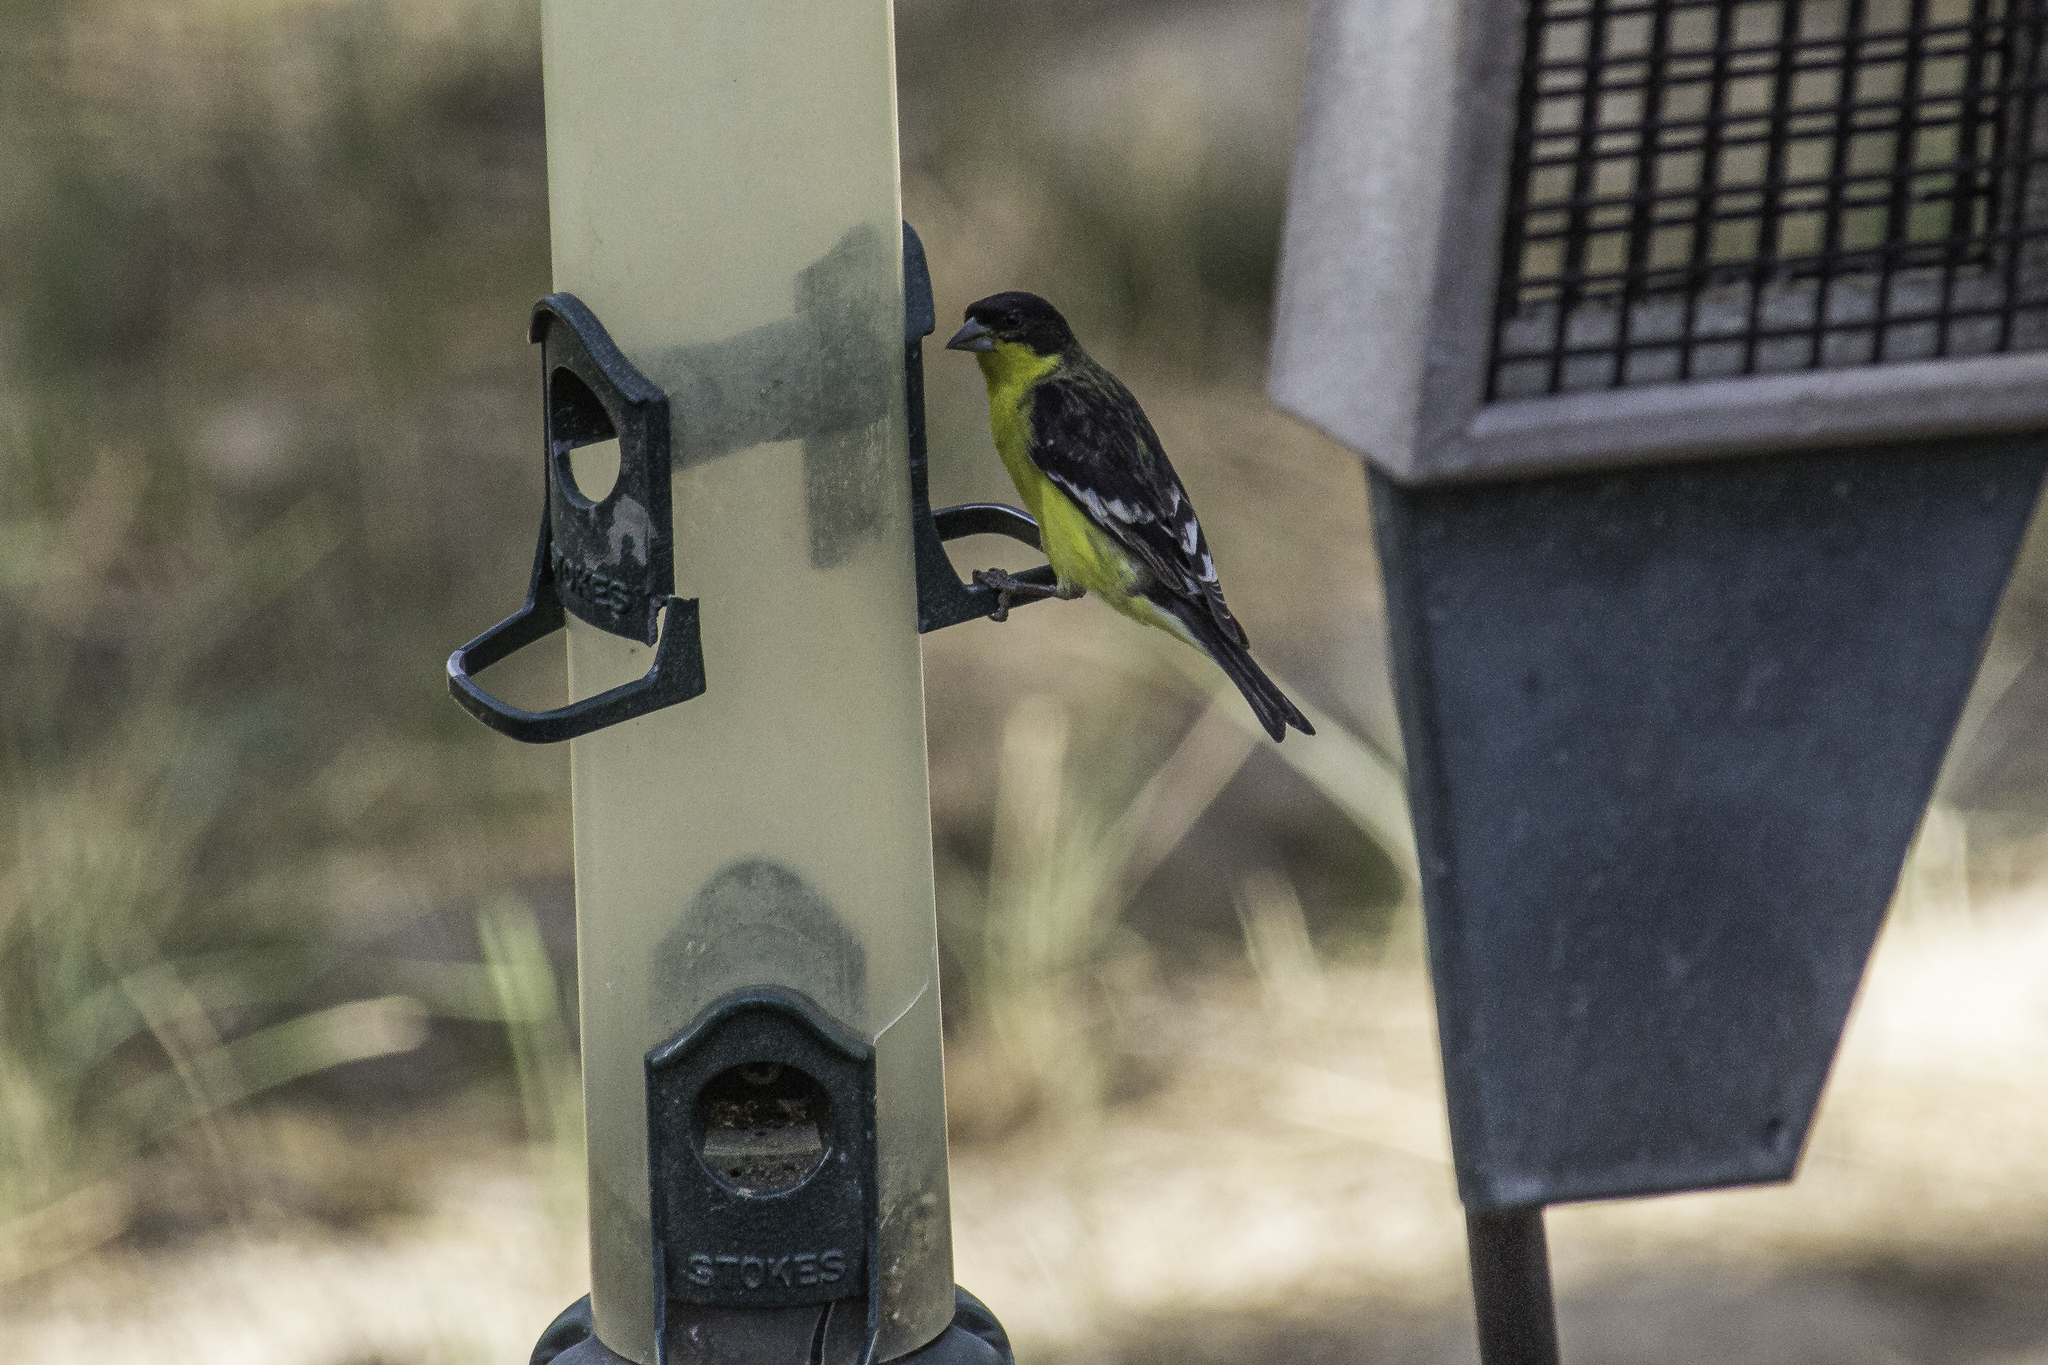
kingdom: Animalia
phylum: Chordata
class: Aves
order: Passeriformes
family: Fringillidae
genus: Spinus
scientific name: Spinus psaltria
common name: Lesser goldfinch
